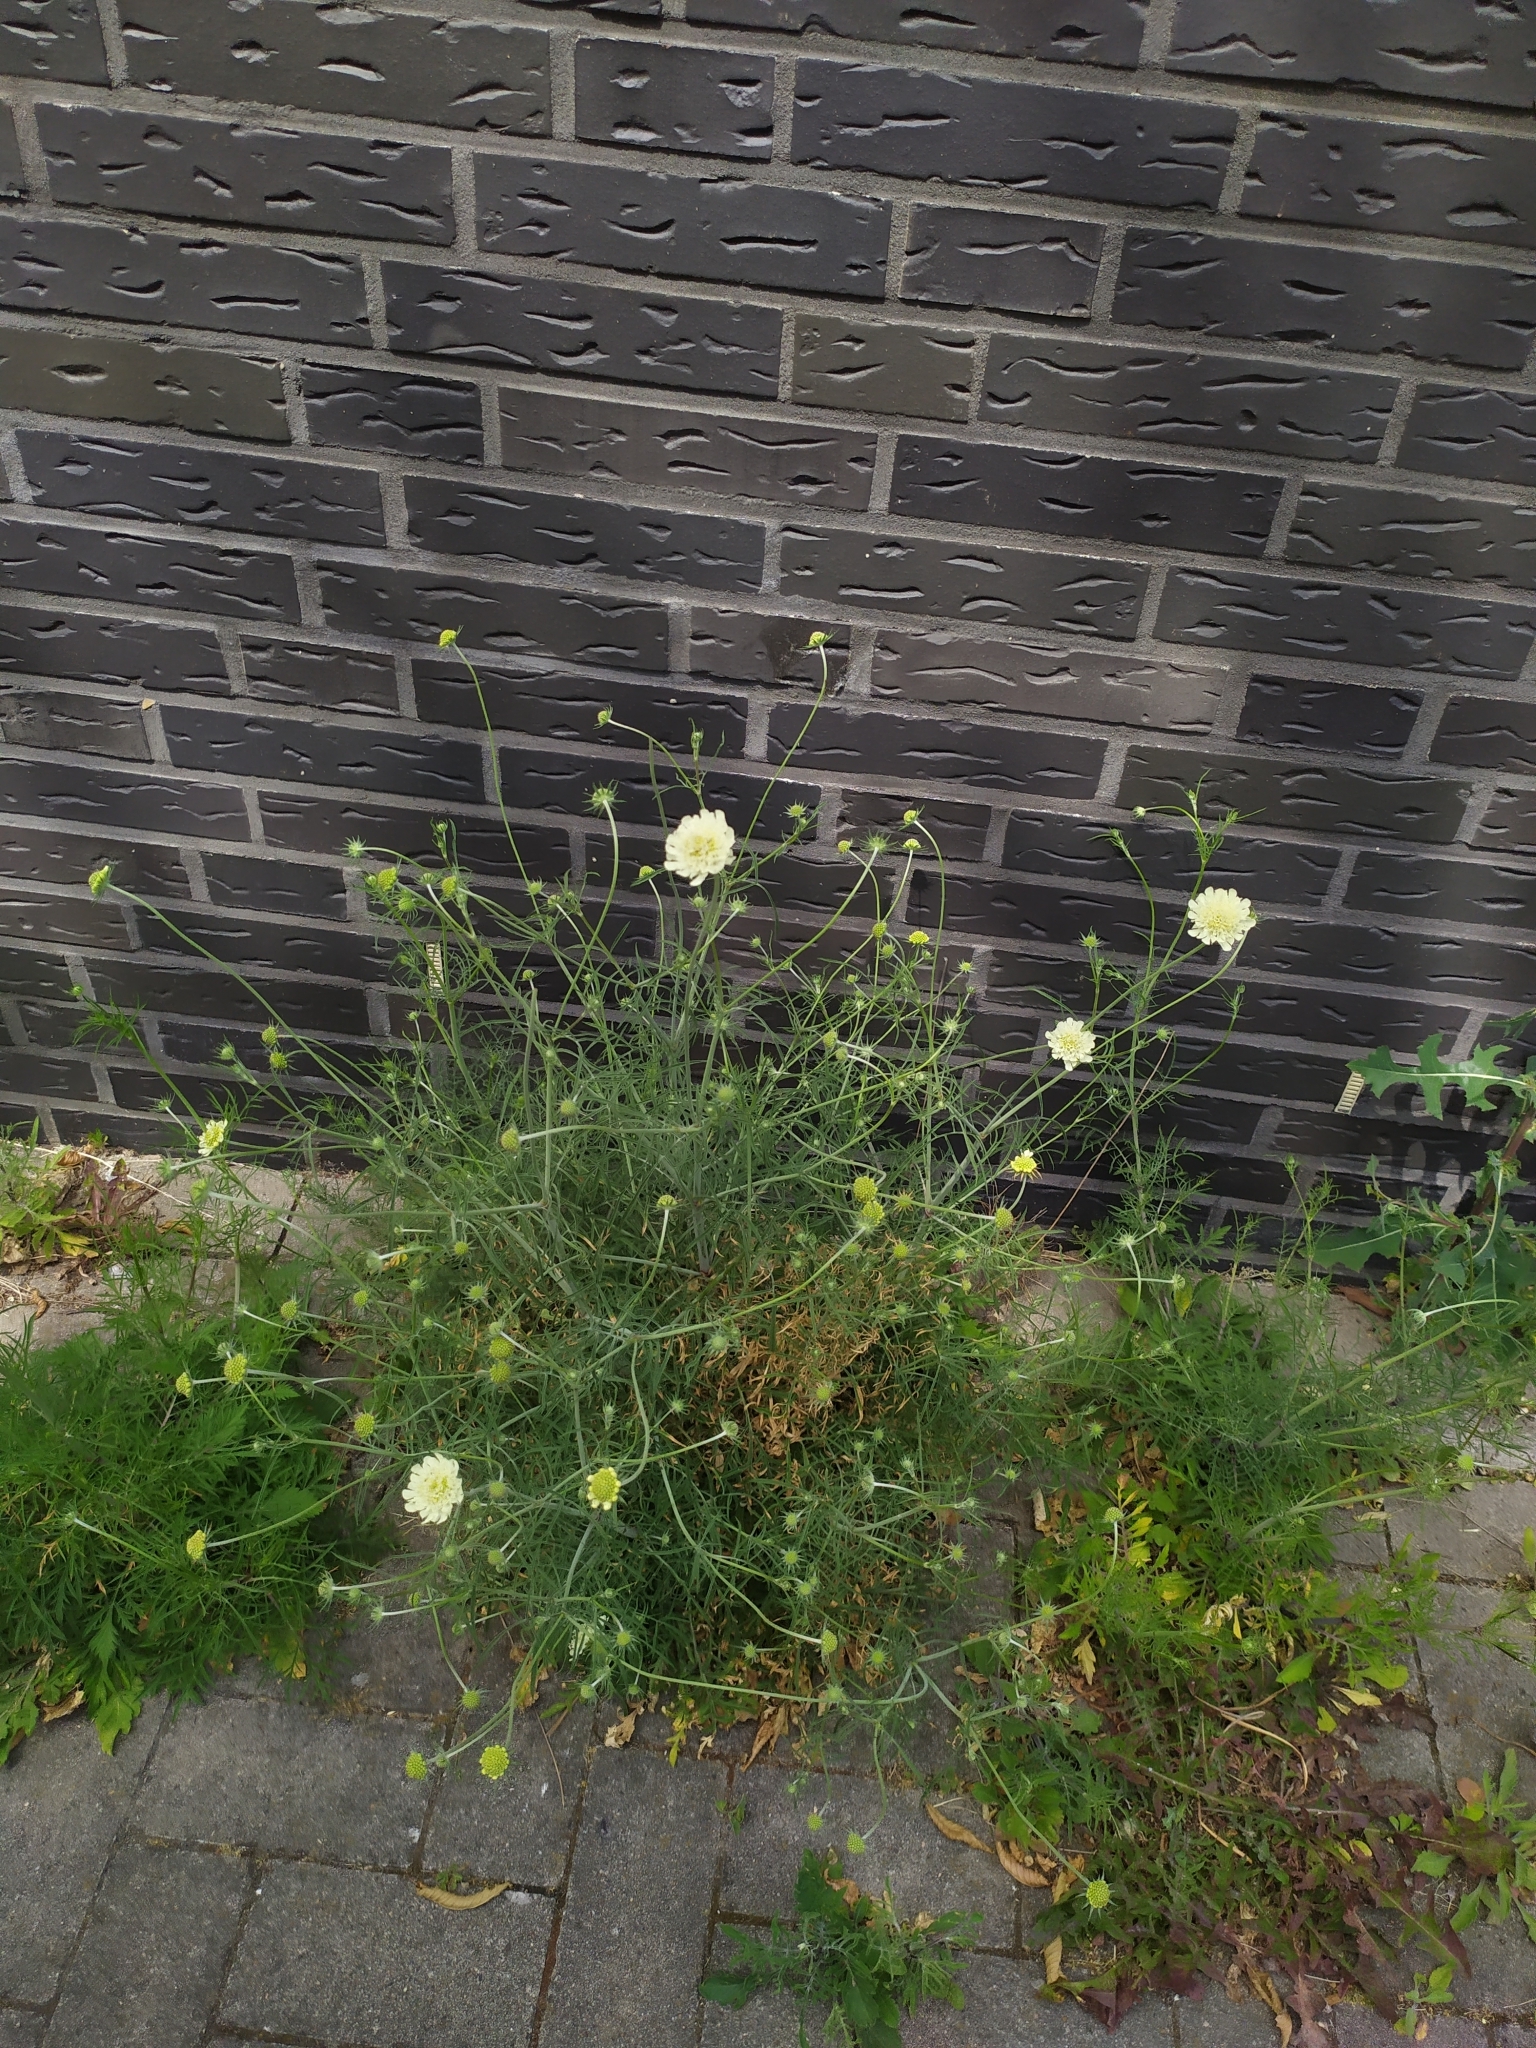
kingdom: Plantae
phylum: Tracheophyta
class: Magnoliopsida
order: Dipsacales
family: Caprifoliaceae
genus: Scabiosa
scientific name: Scabiosa ochroleuca
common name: Cream pincushions
